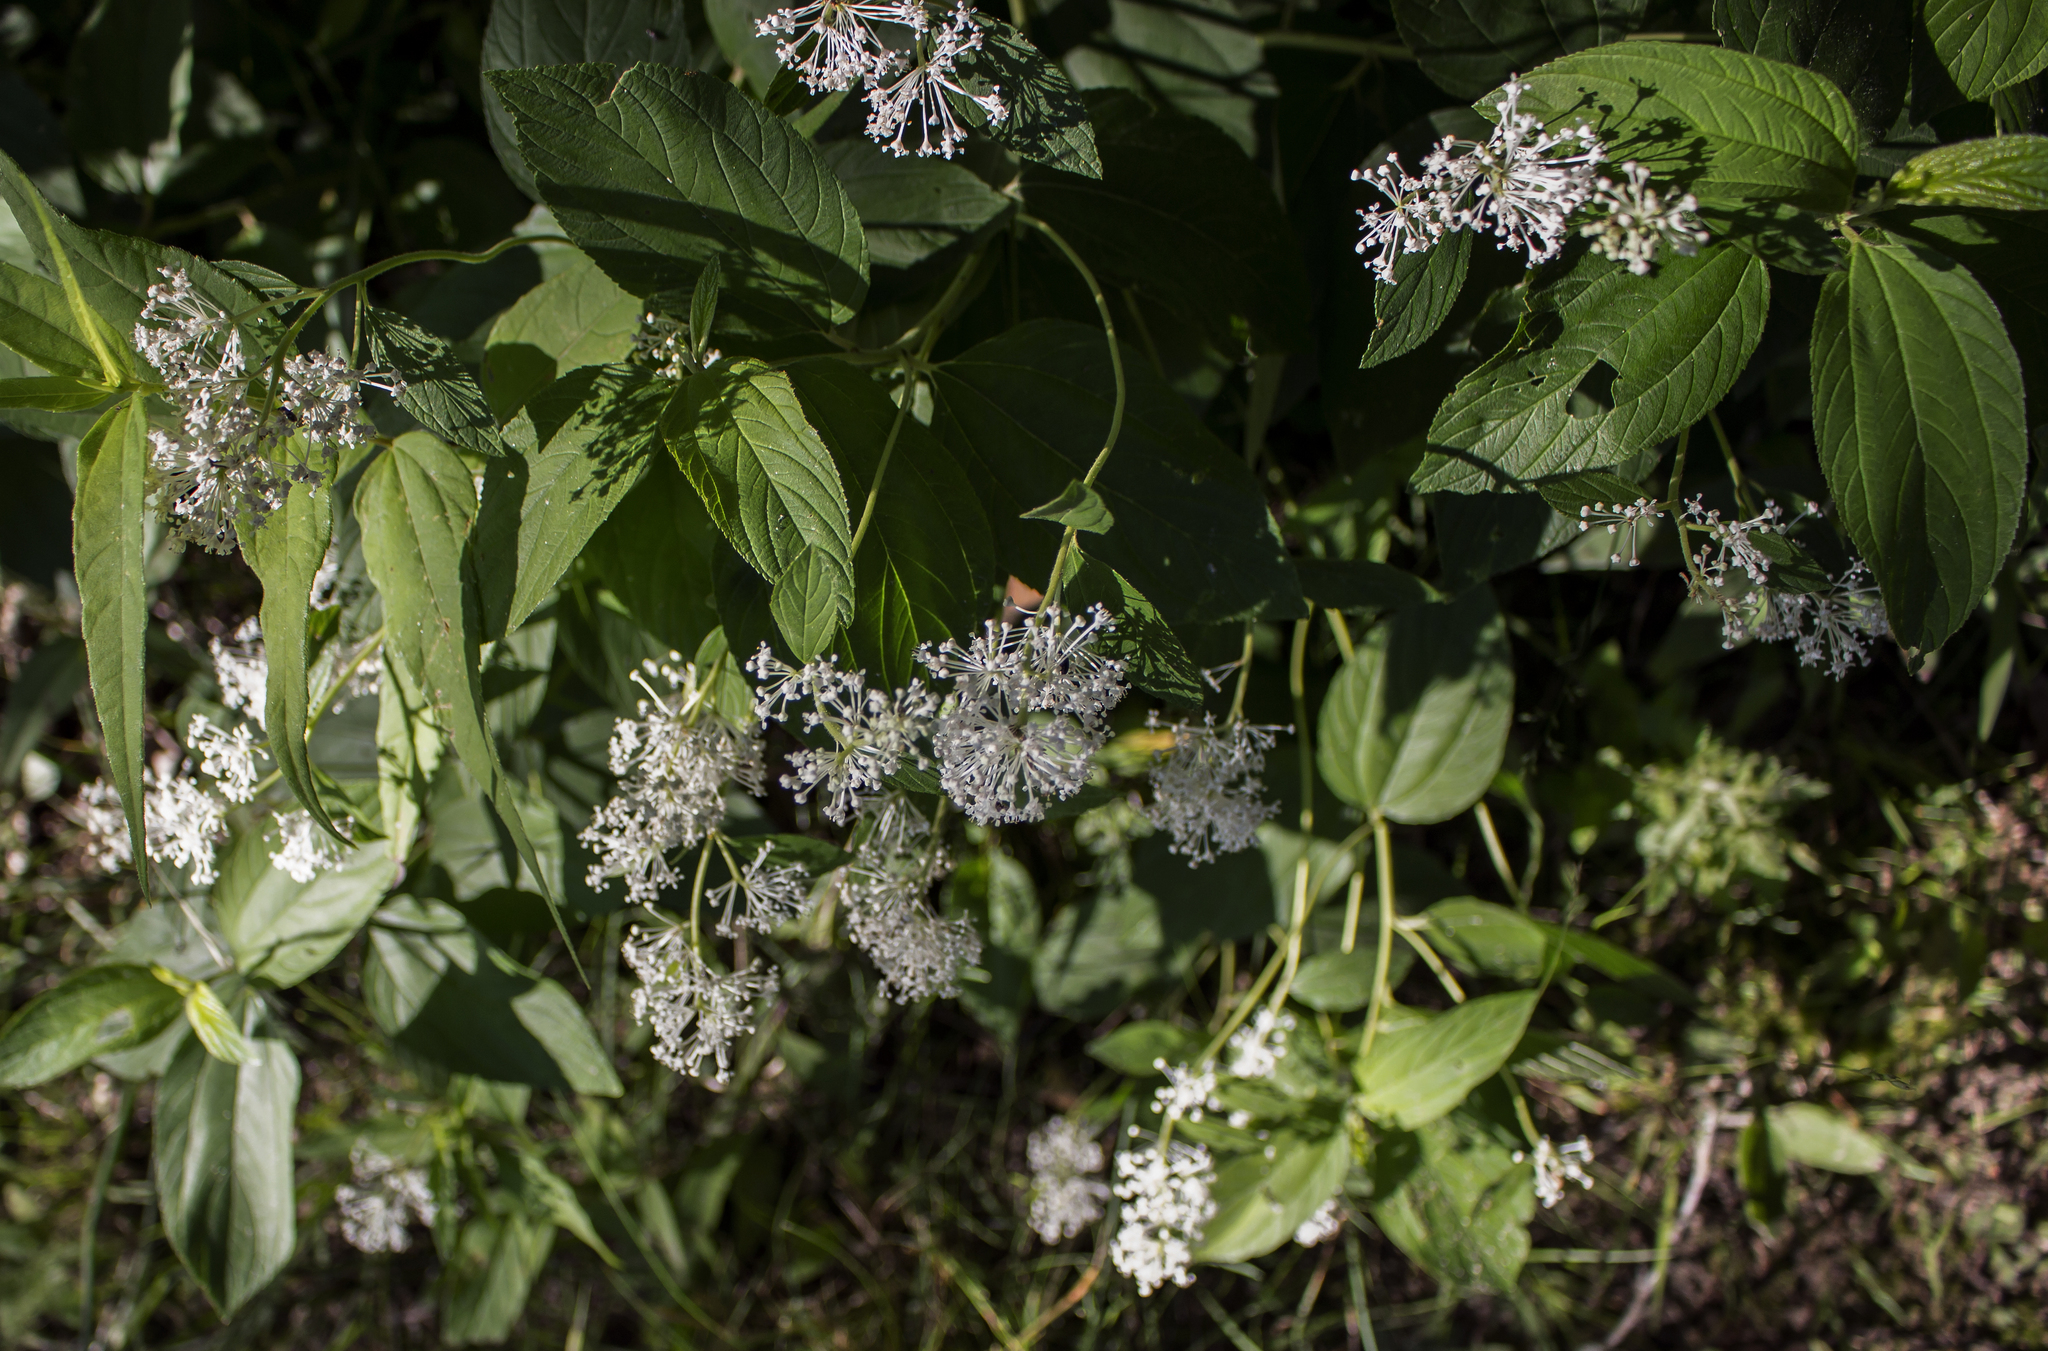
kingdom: Plantae
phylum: Tracheophyta
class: Magnoliopsida
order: Rosales
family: Rhamnaceae
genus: Ceanothus
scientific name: Ceanothus americanus
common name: Redroot
